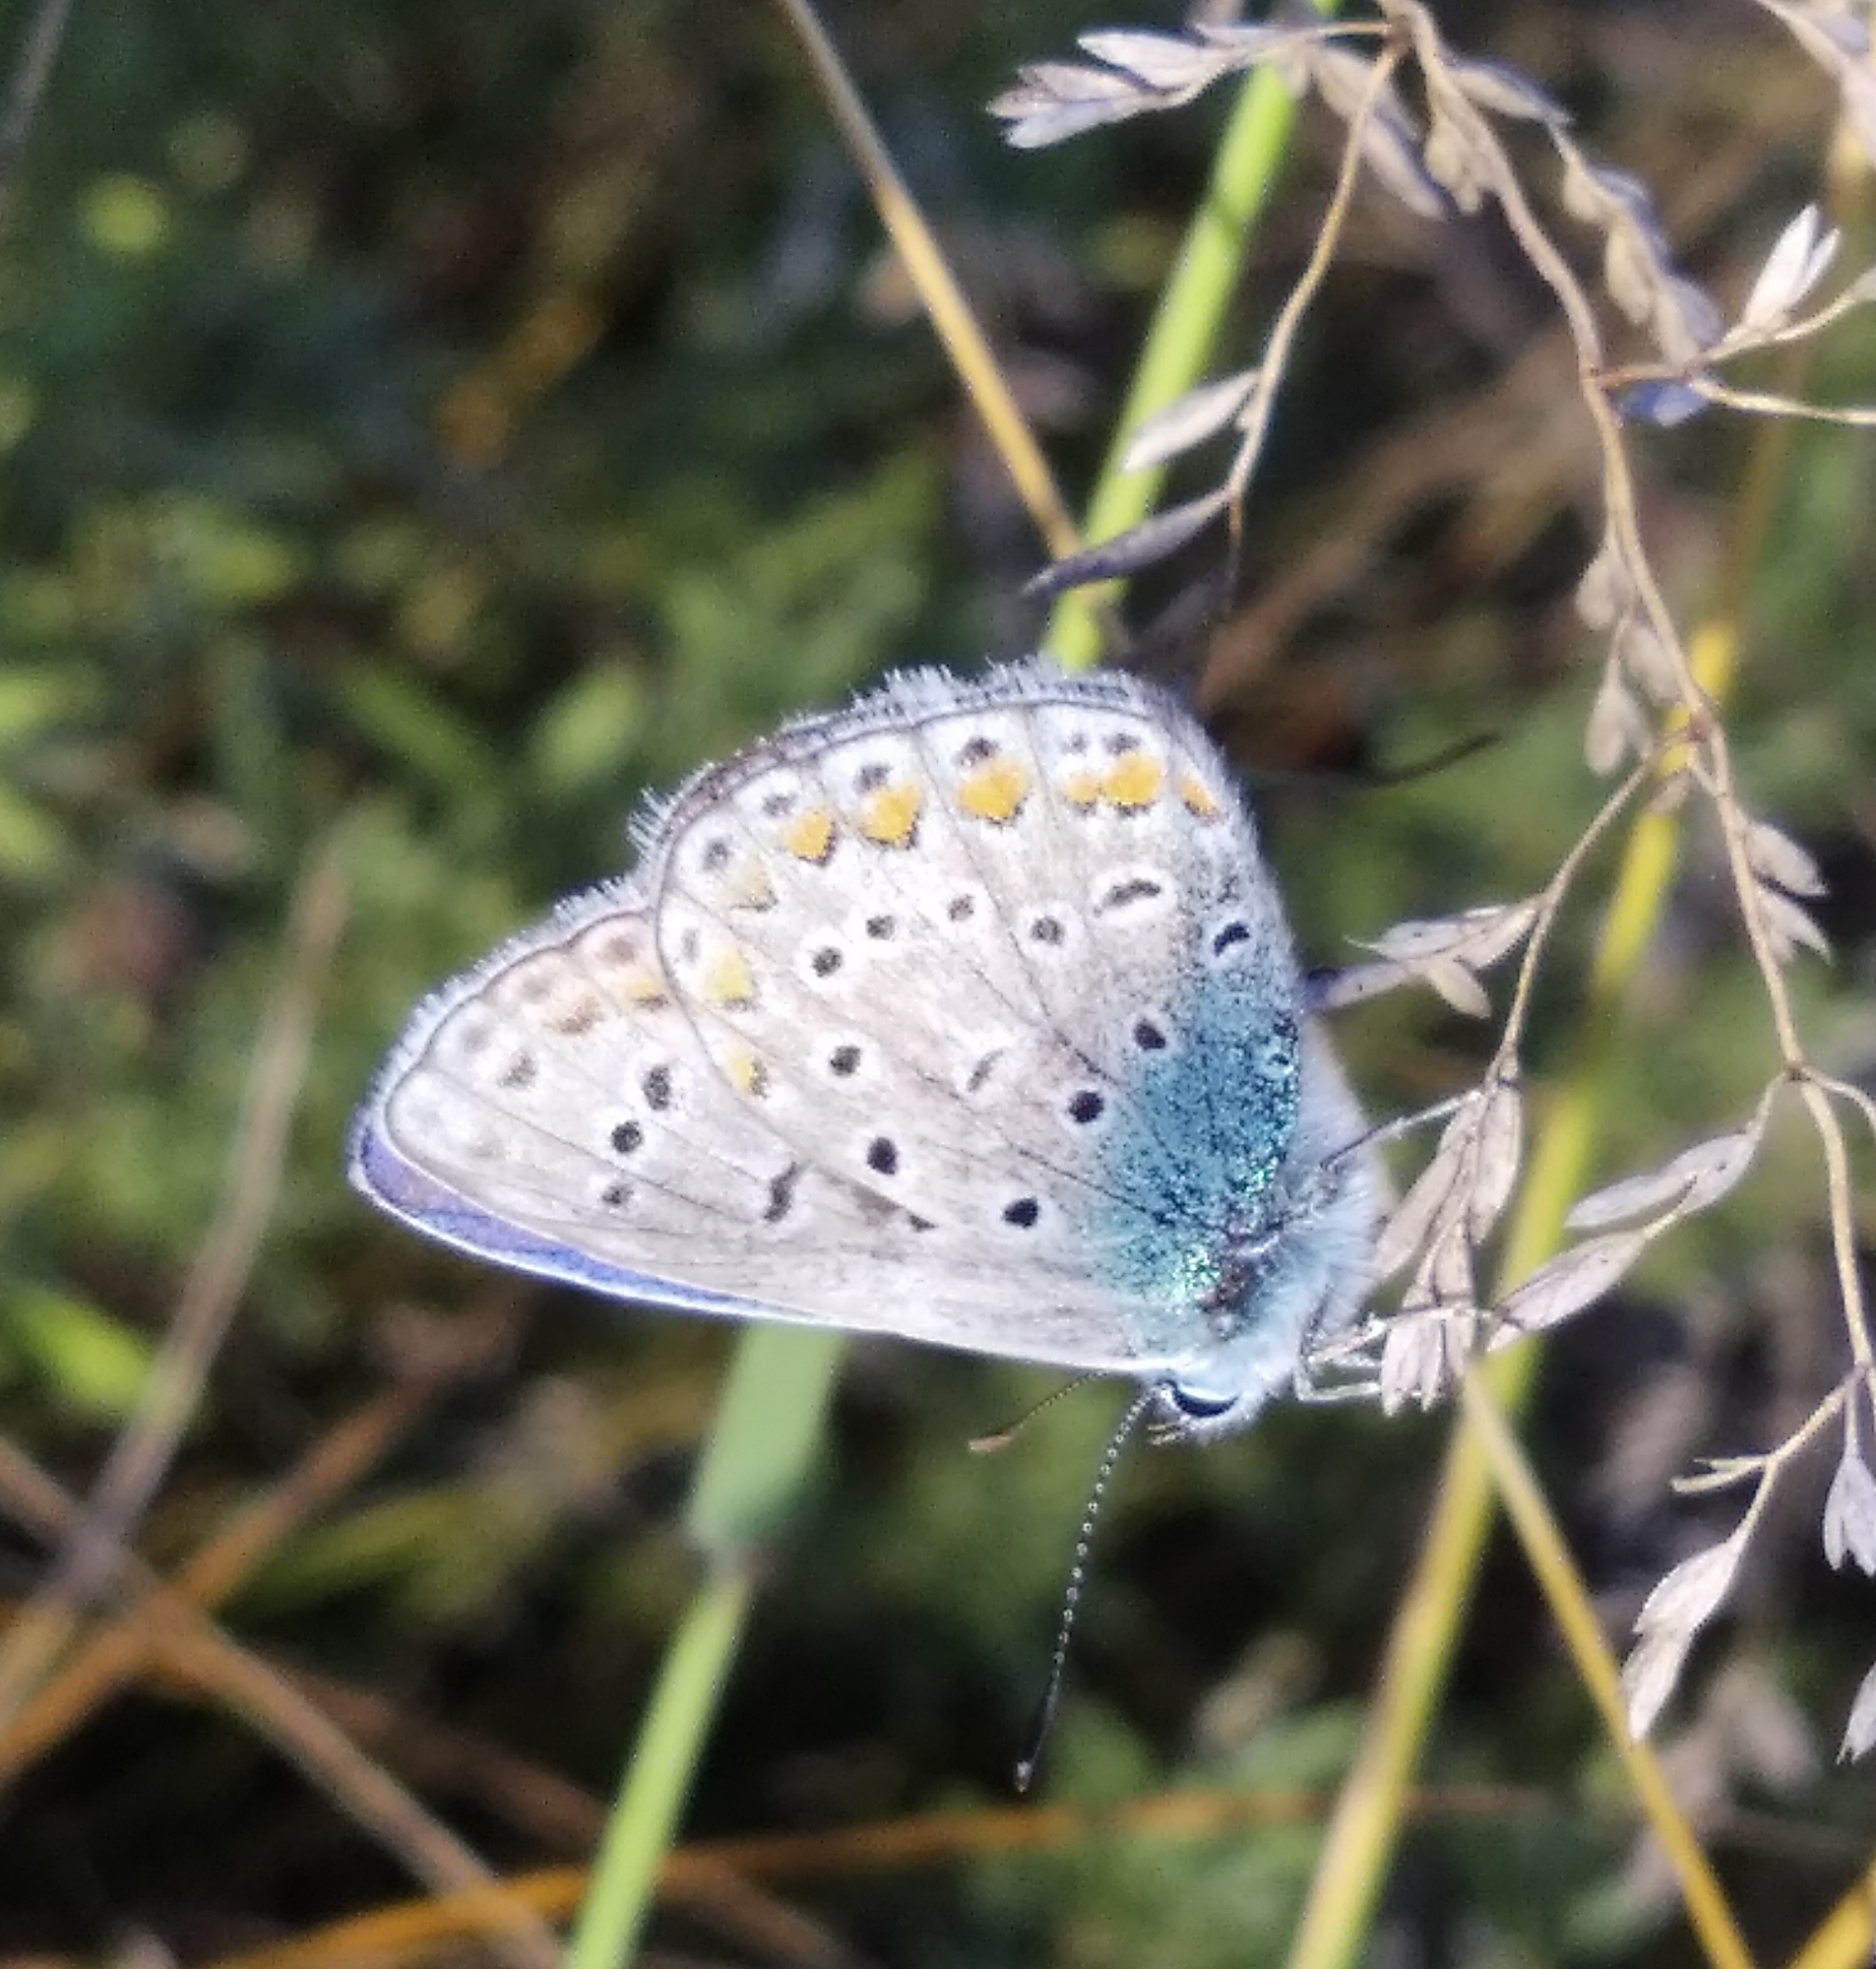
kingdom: Animalia
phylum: Arthropoda
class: Insecta
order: Lepidoptera
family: Lycaenidae
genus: Polyommatus
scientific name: Polyommatus icarus
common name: Common blue
